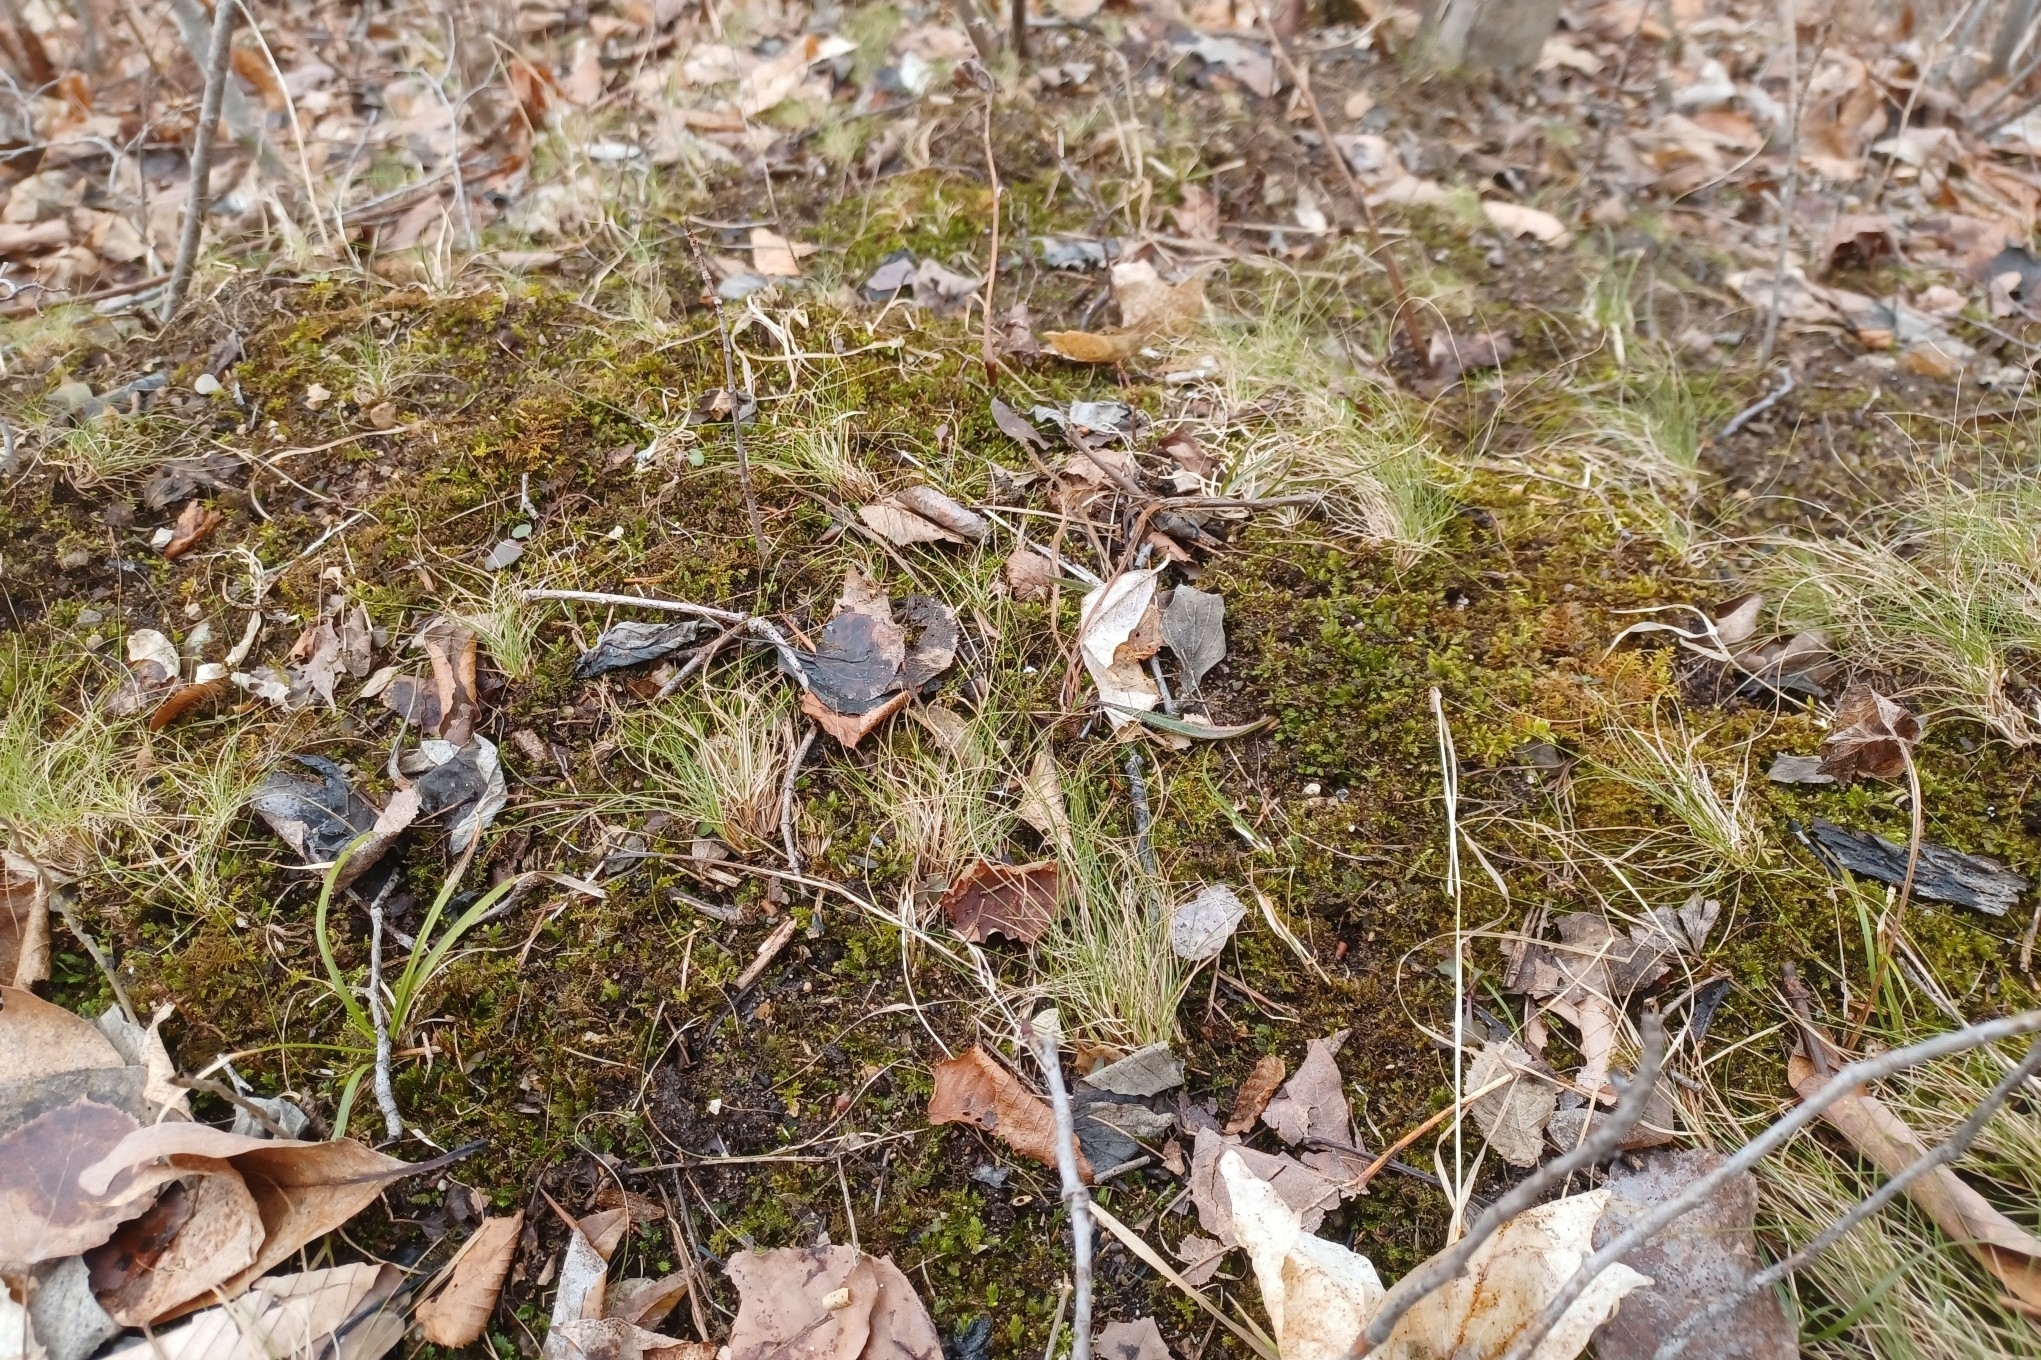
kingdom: Plantae
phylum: Tracheophyta
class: Liliopsida
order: Poales
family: Cyperaceae
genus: Carex
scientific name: Carex eburnea
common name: Bristle-leaved sedge
